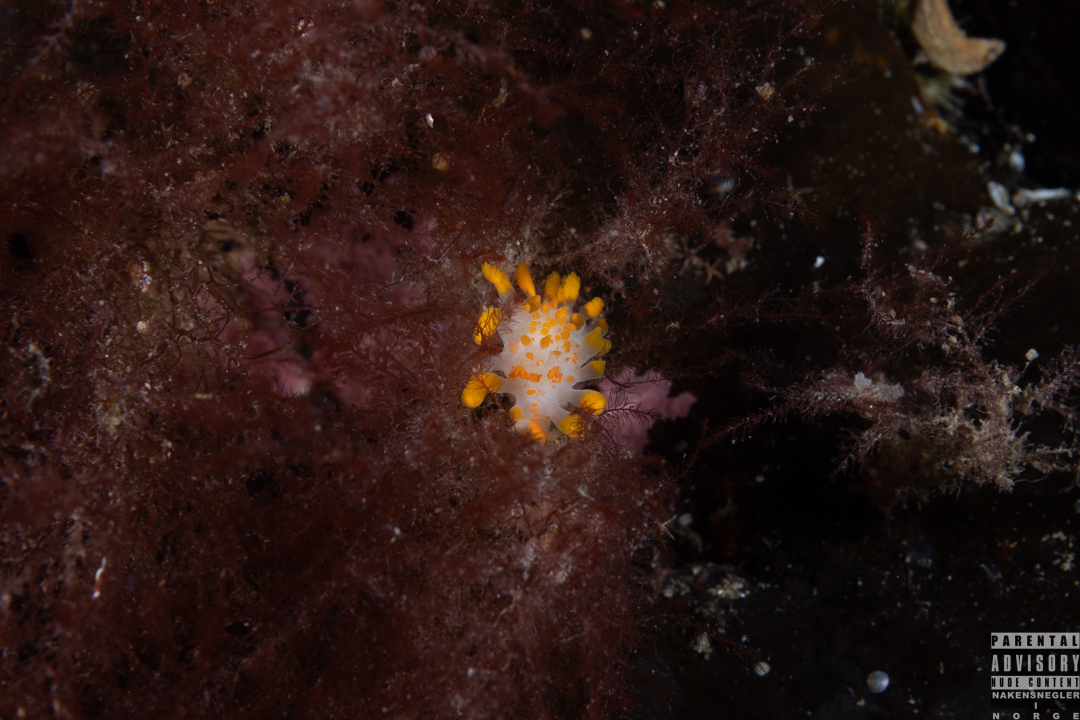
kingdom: Animalia
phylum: Mollusca
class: Gastropoda
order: Nudibranchia
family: Polyceridae
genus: Limacia
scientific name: Limacia clavigera
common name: Orange-clubbed sea slug
